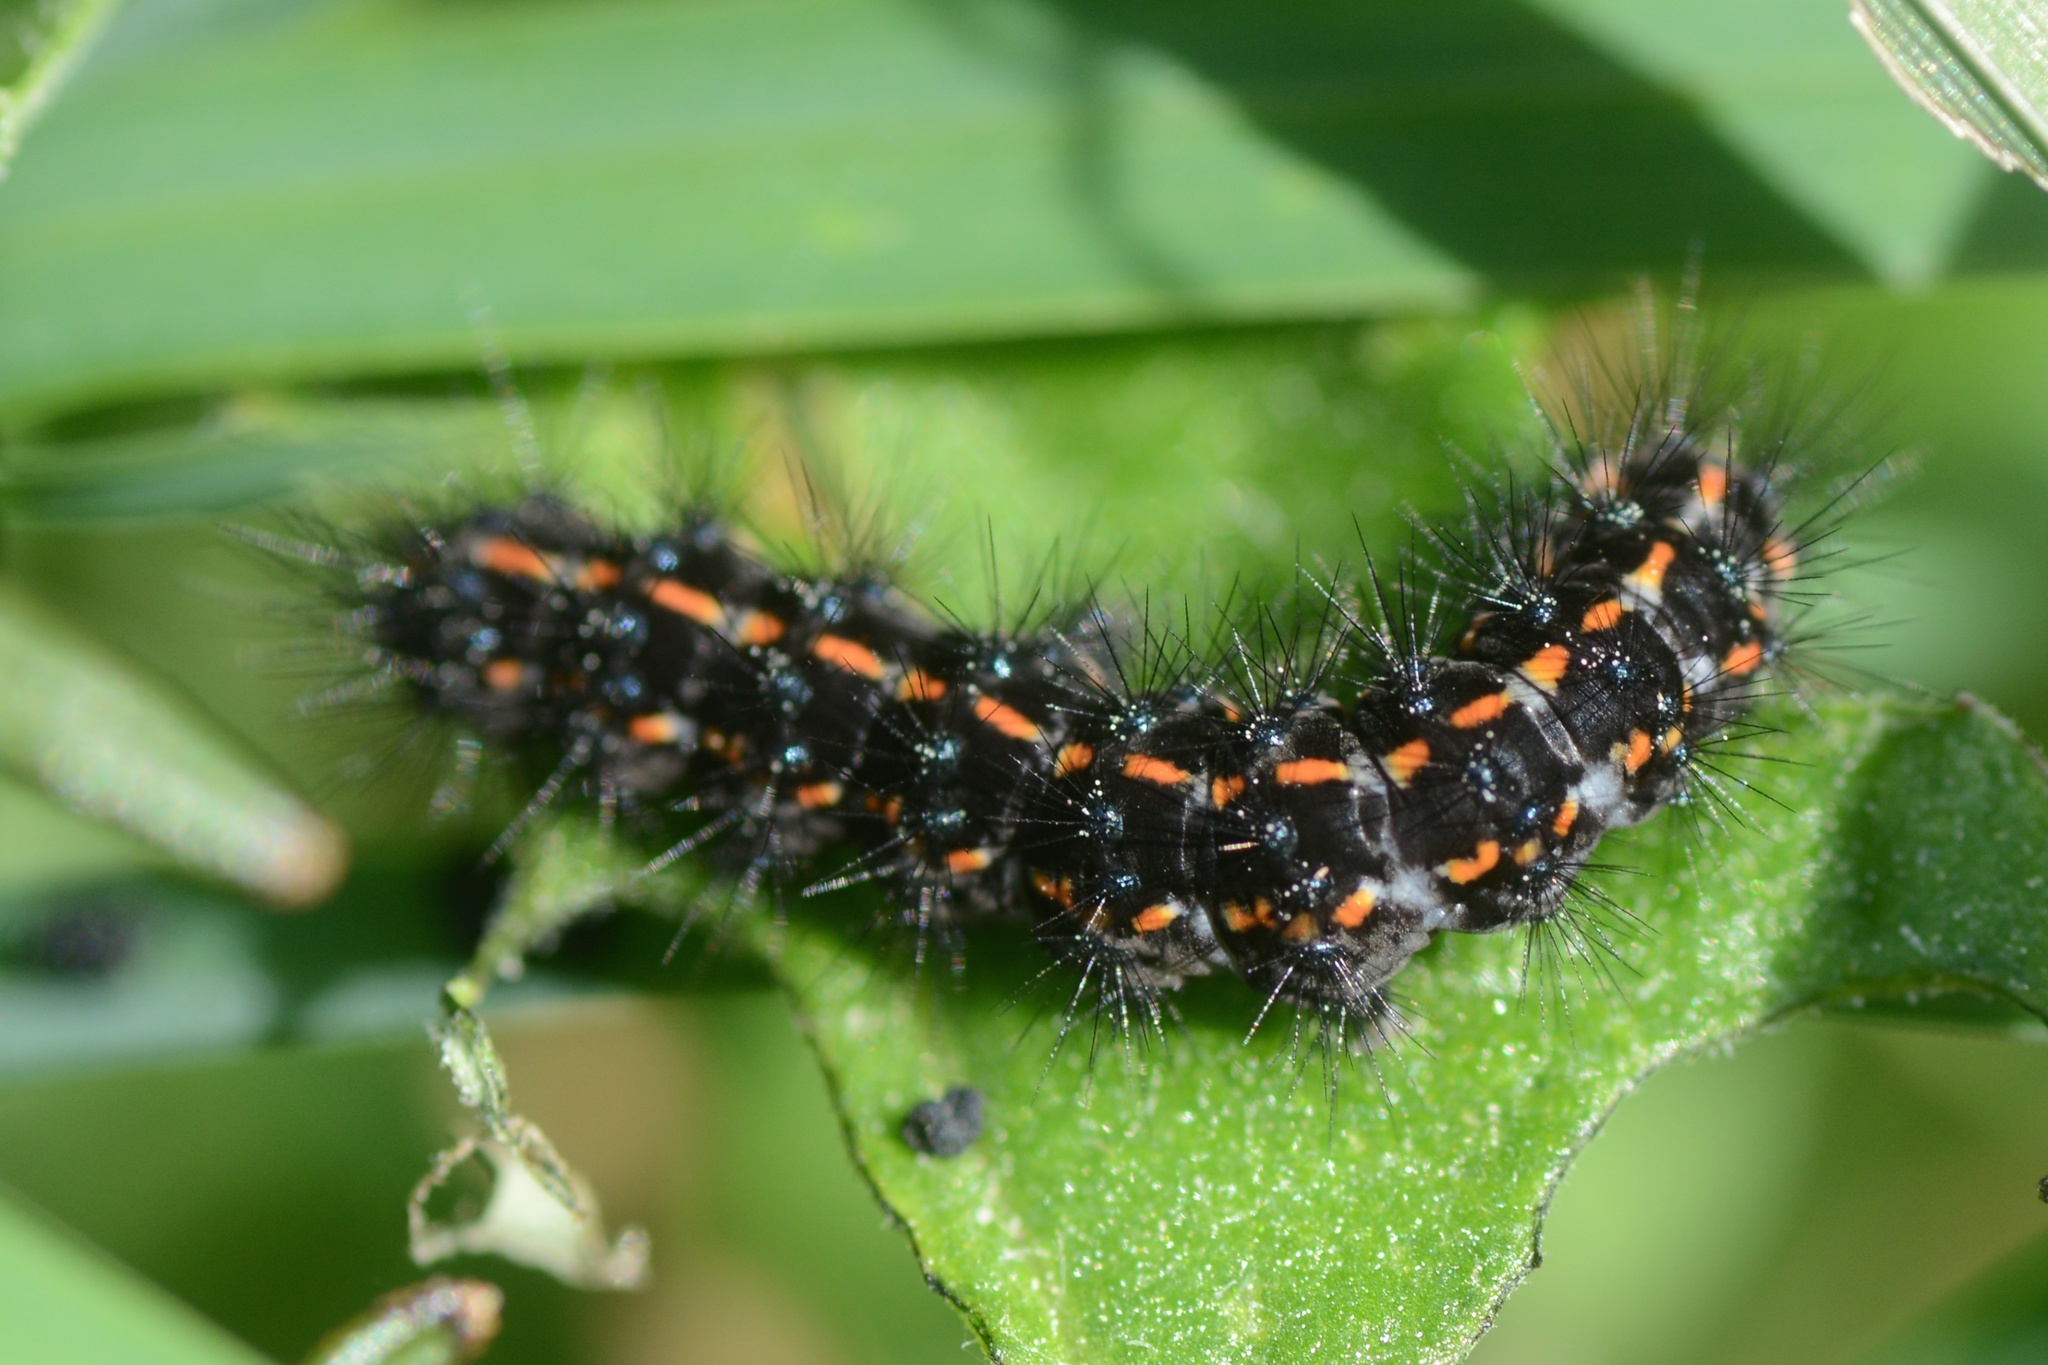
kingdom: Animalia
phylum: Arthropoda
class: Insecta
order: Lepidoptera
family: Erebidae
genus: Nyctemera
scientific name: Nyctemera annulatum
